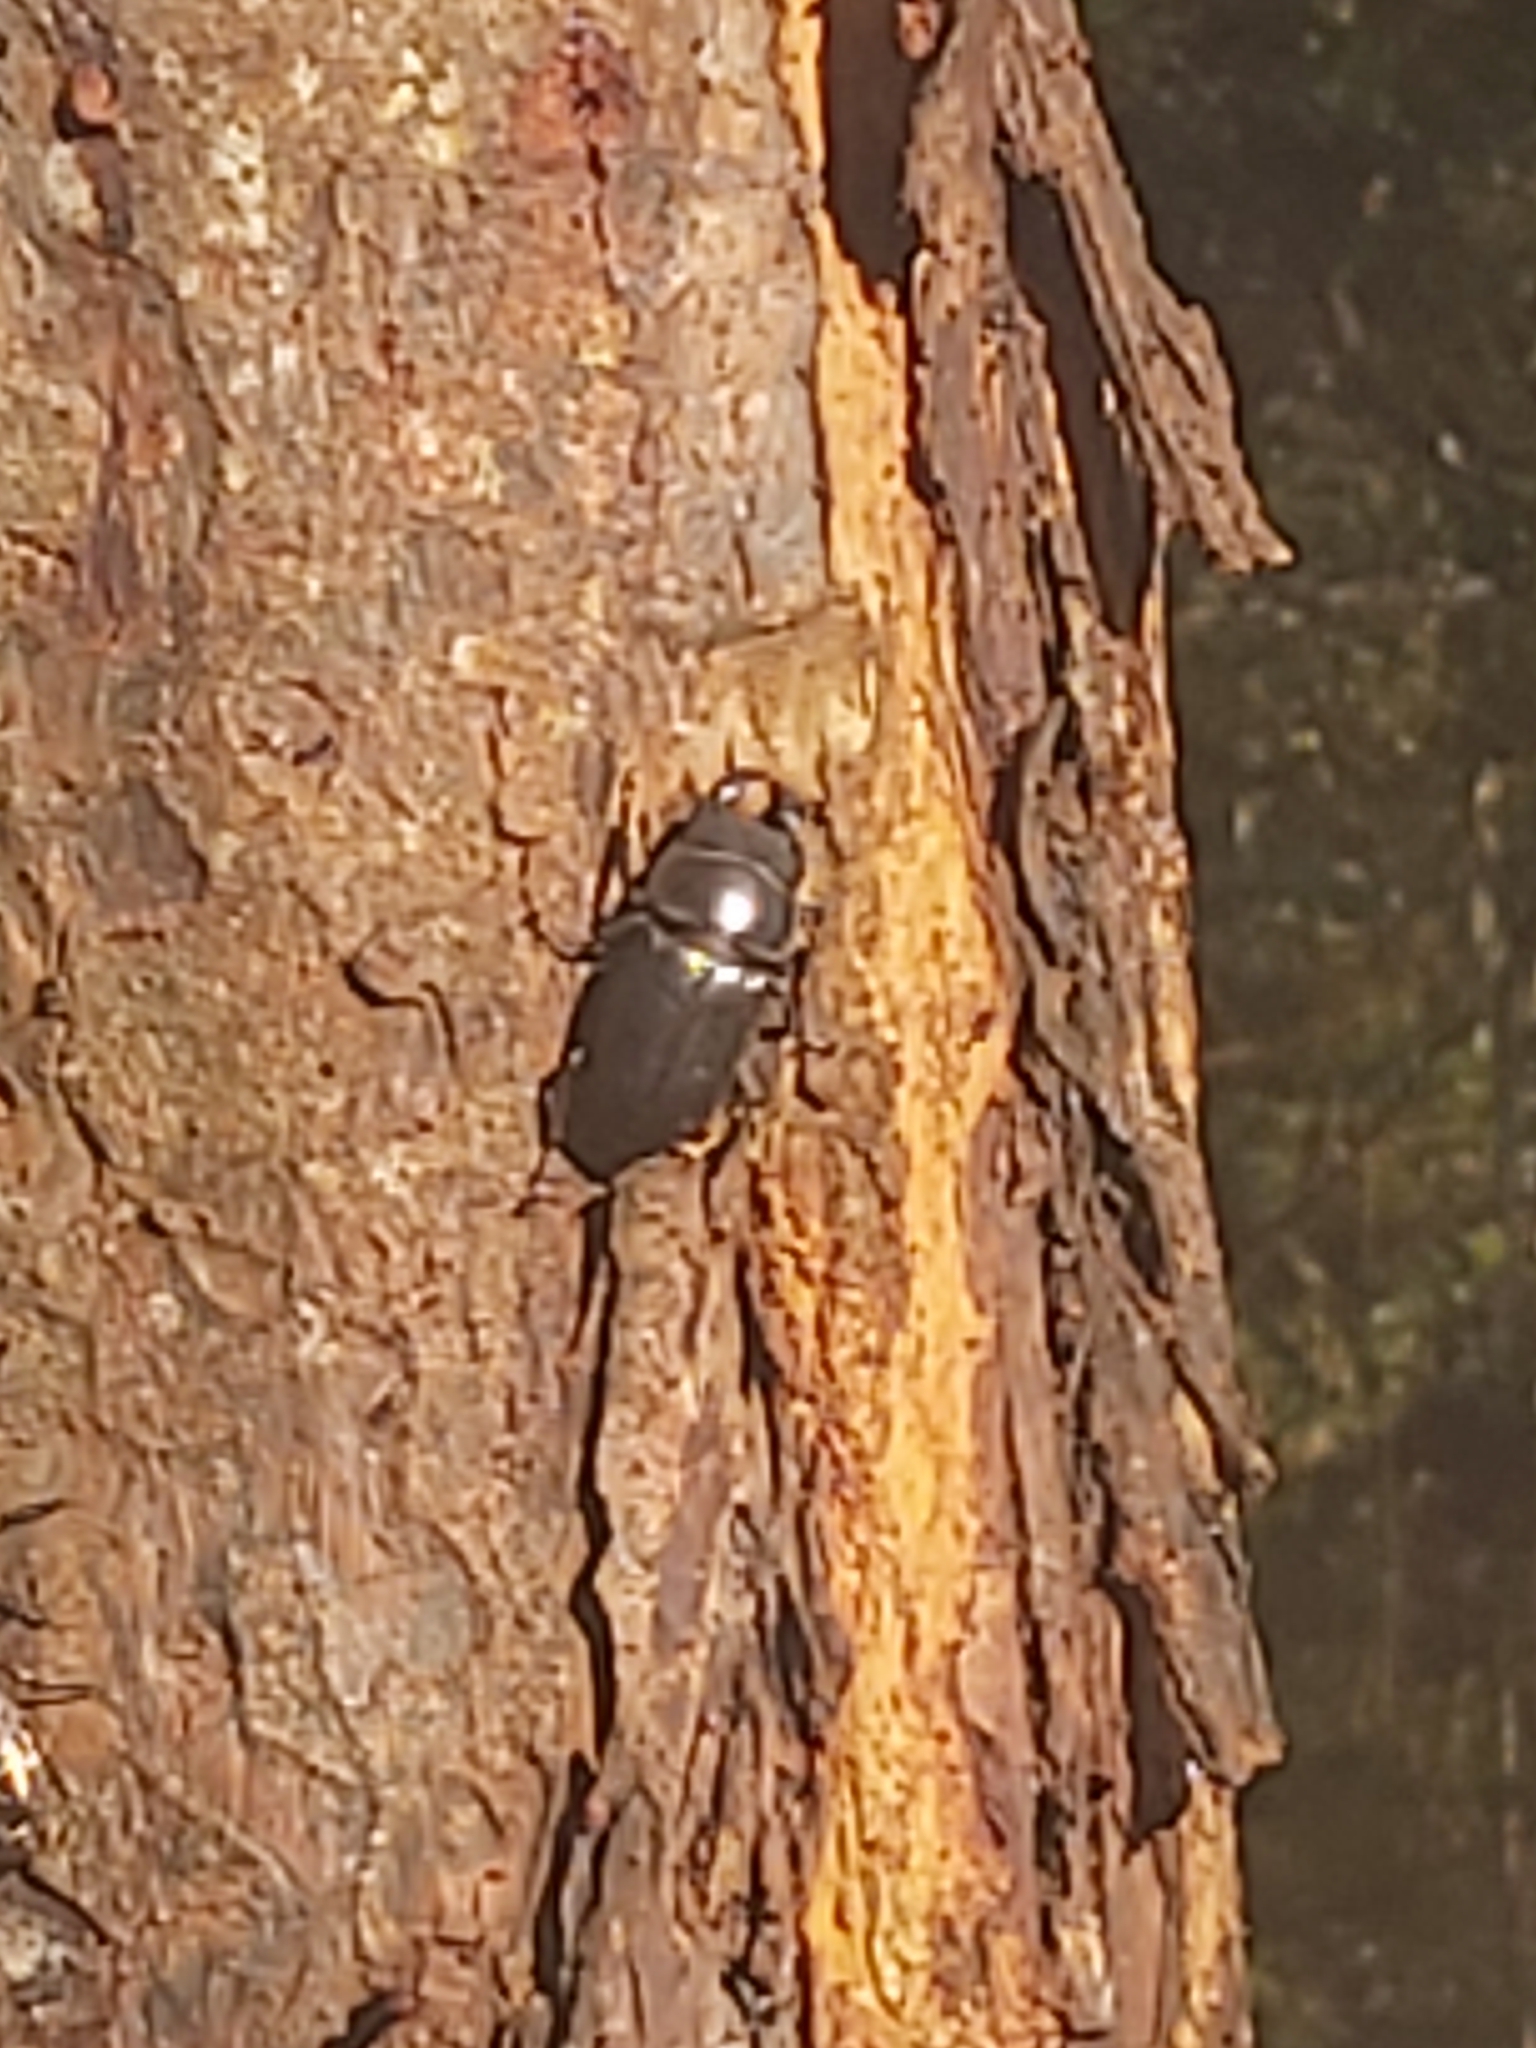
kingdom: Animalia
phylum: Arthropoda
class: Insecta
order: Coleoptera
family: Lucanidae
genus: Serrognathus
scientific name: Serrognathus titanus
